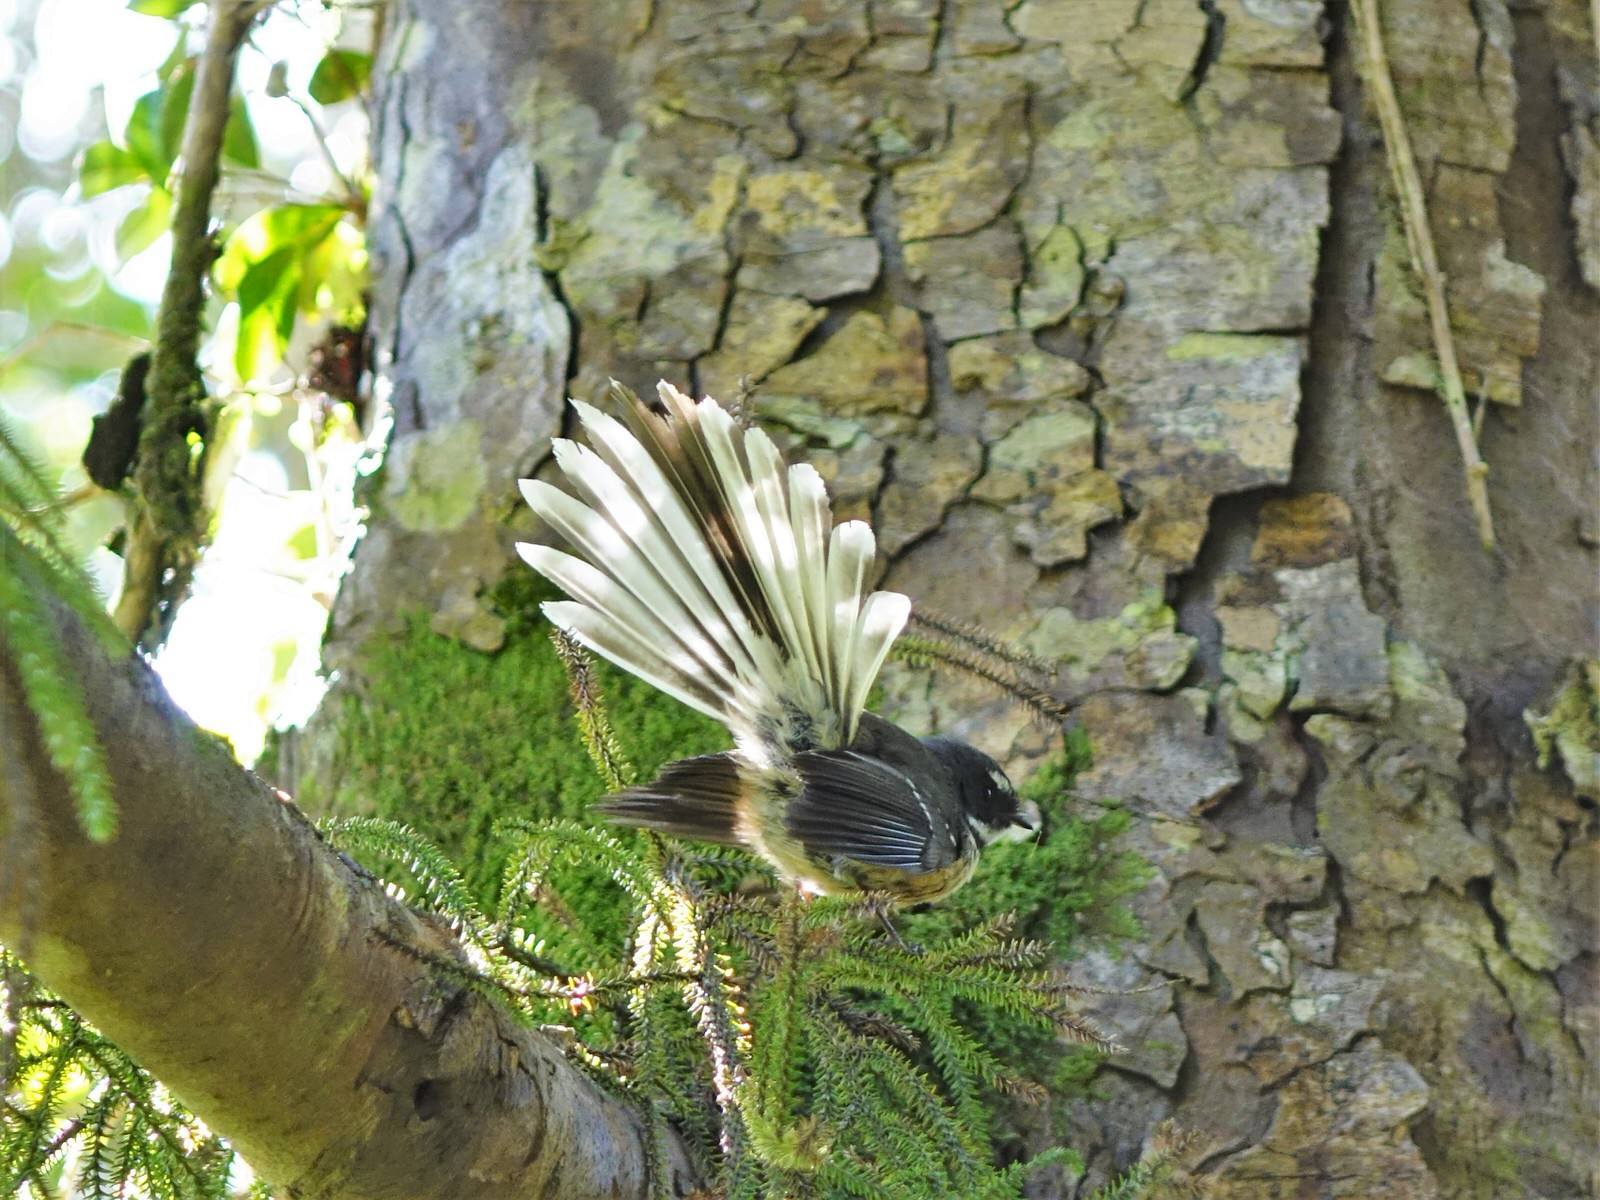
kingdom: Animalia
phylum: Chordata
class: Aves
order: Passeriformes
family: Rhipiduridae
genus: Rhipidura
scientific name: Rhipidura fuliginosa
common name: New zealand fantail
